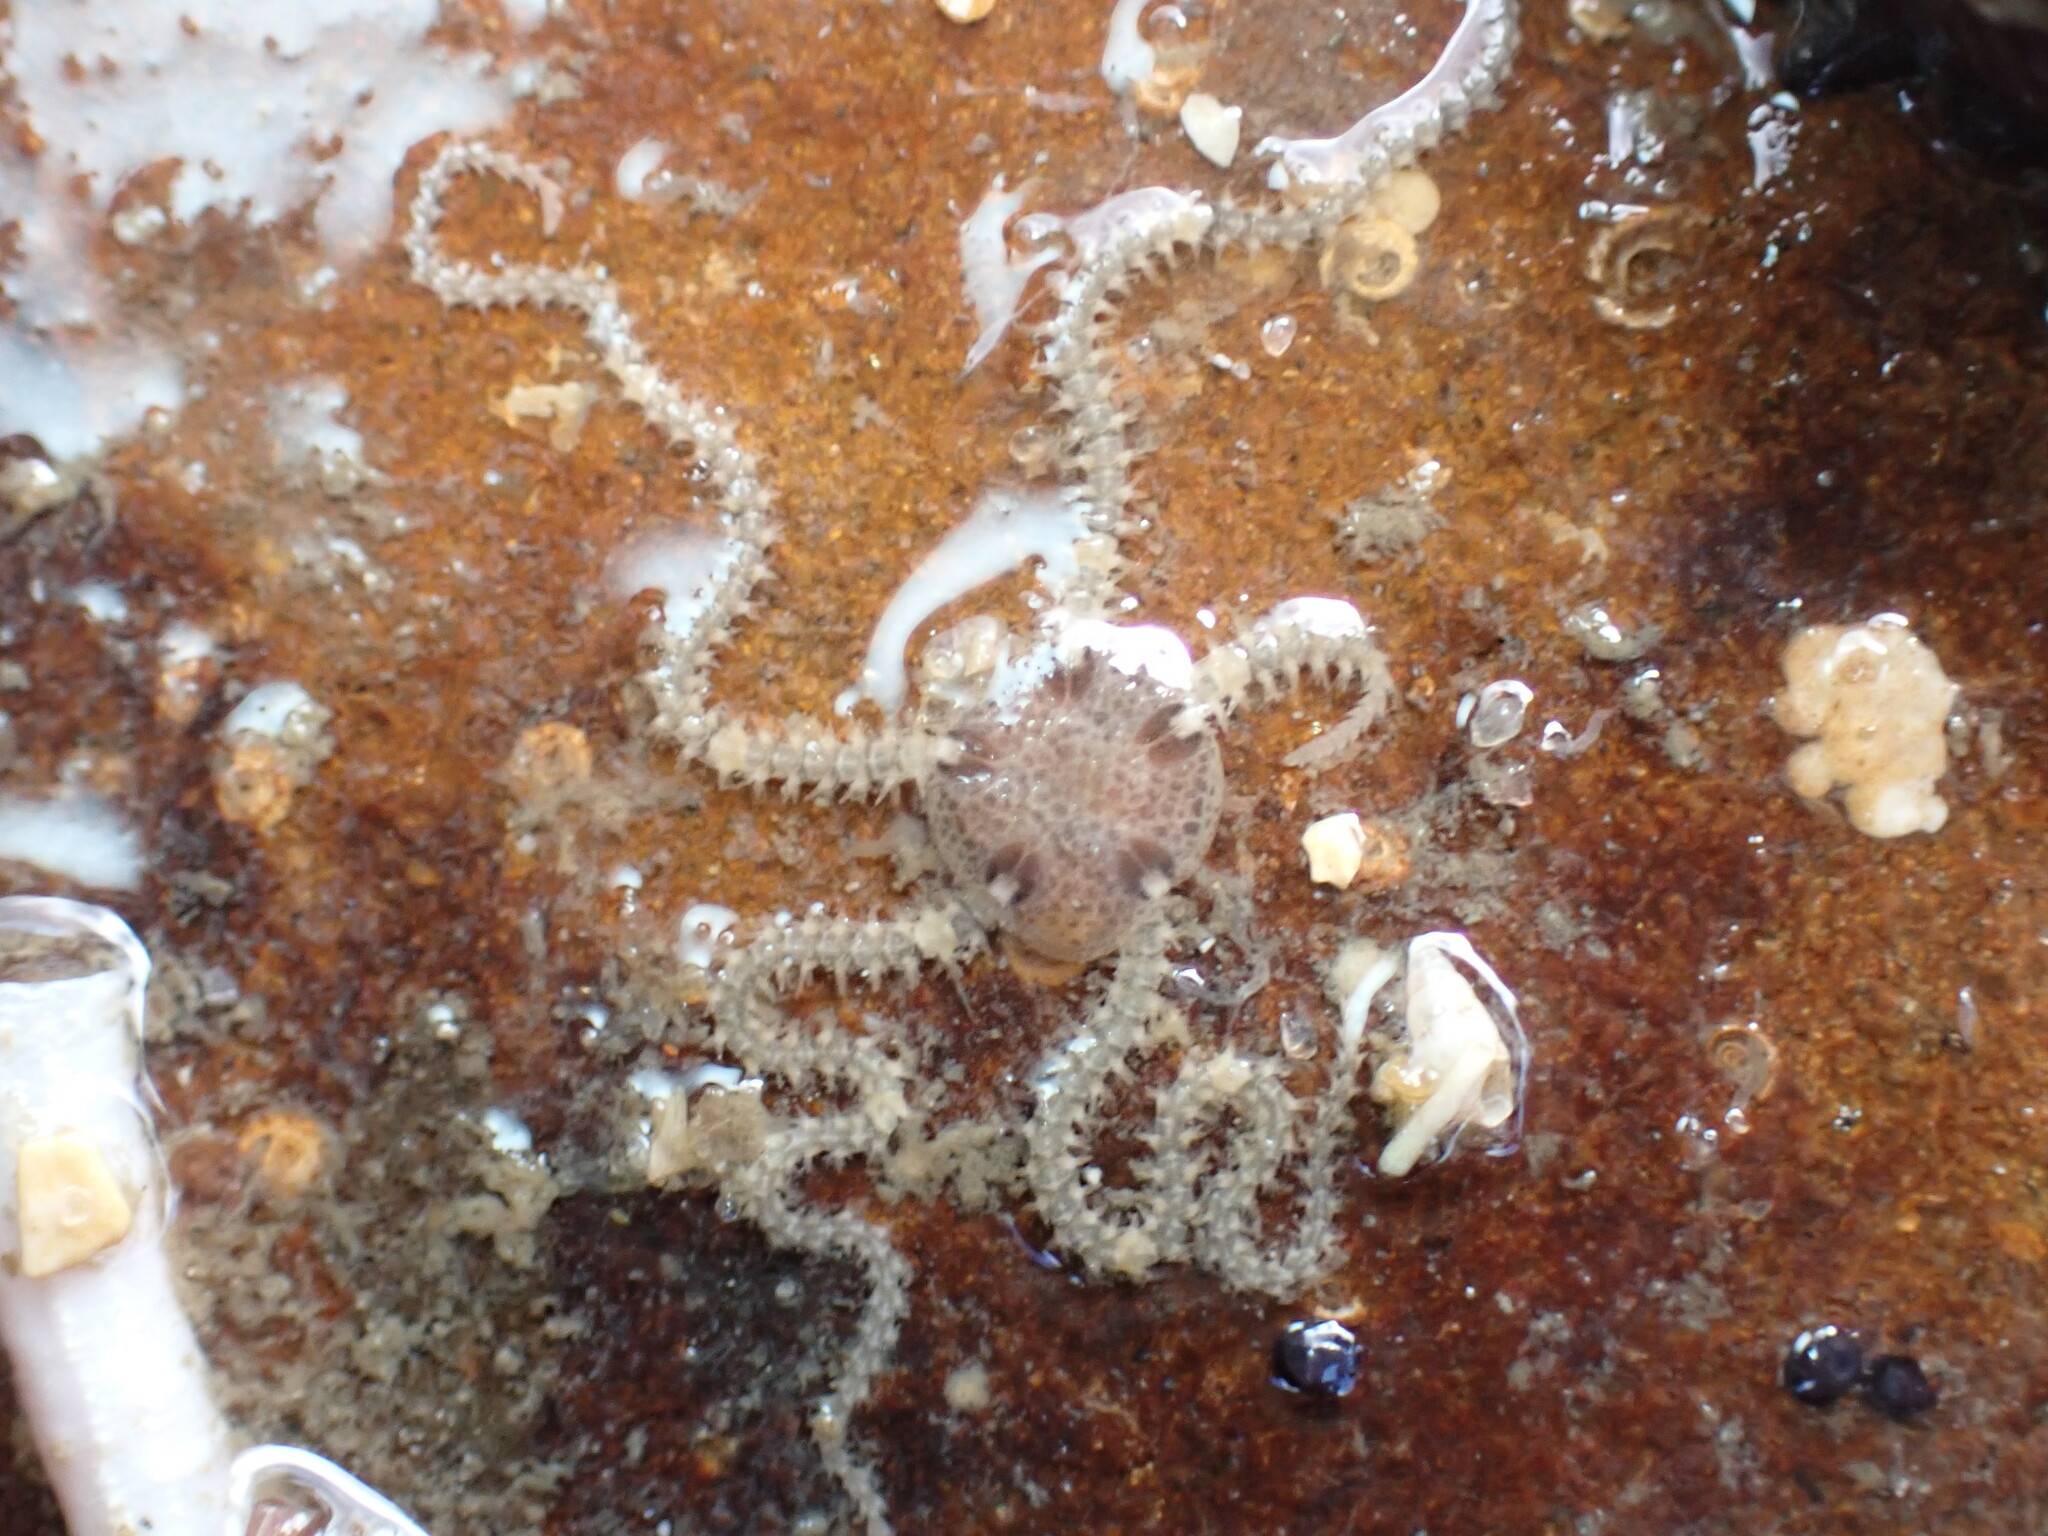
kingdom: Animalia
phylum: Echinodermata
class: Ophiuroidea
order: Amphilepidida
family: Amphiuridae
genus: Amphipholis
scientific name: Amphipholis squamata
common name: Brooding snake star
